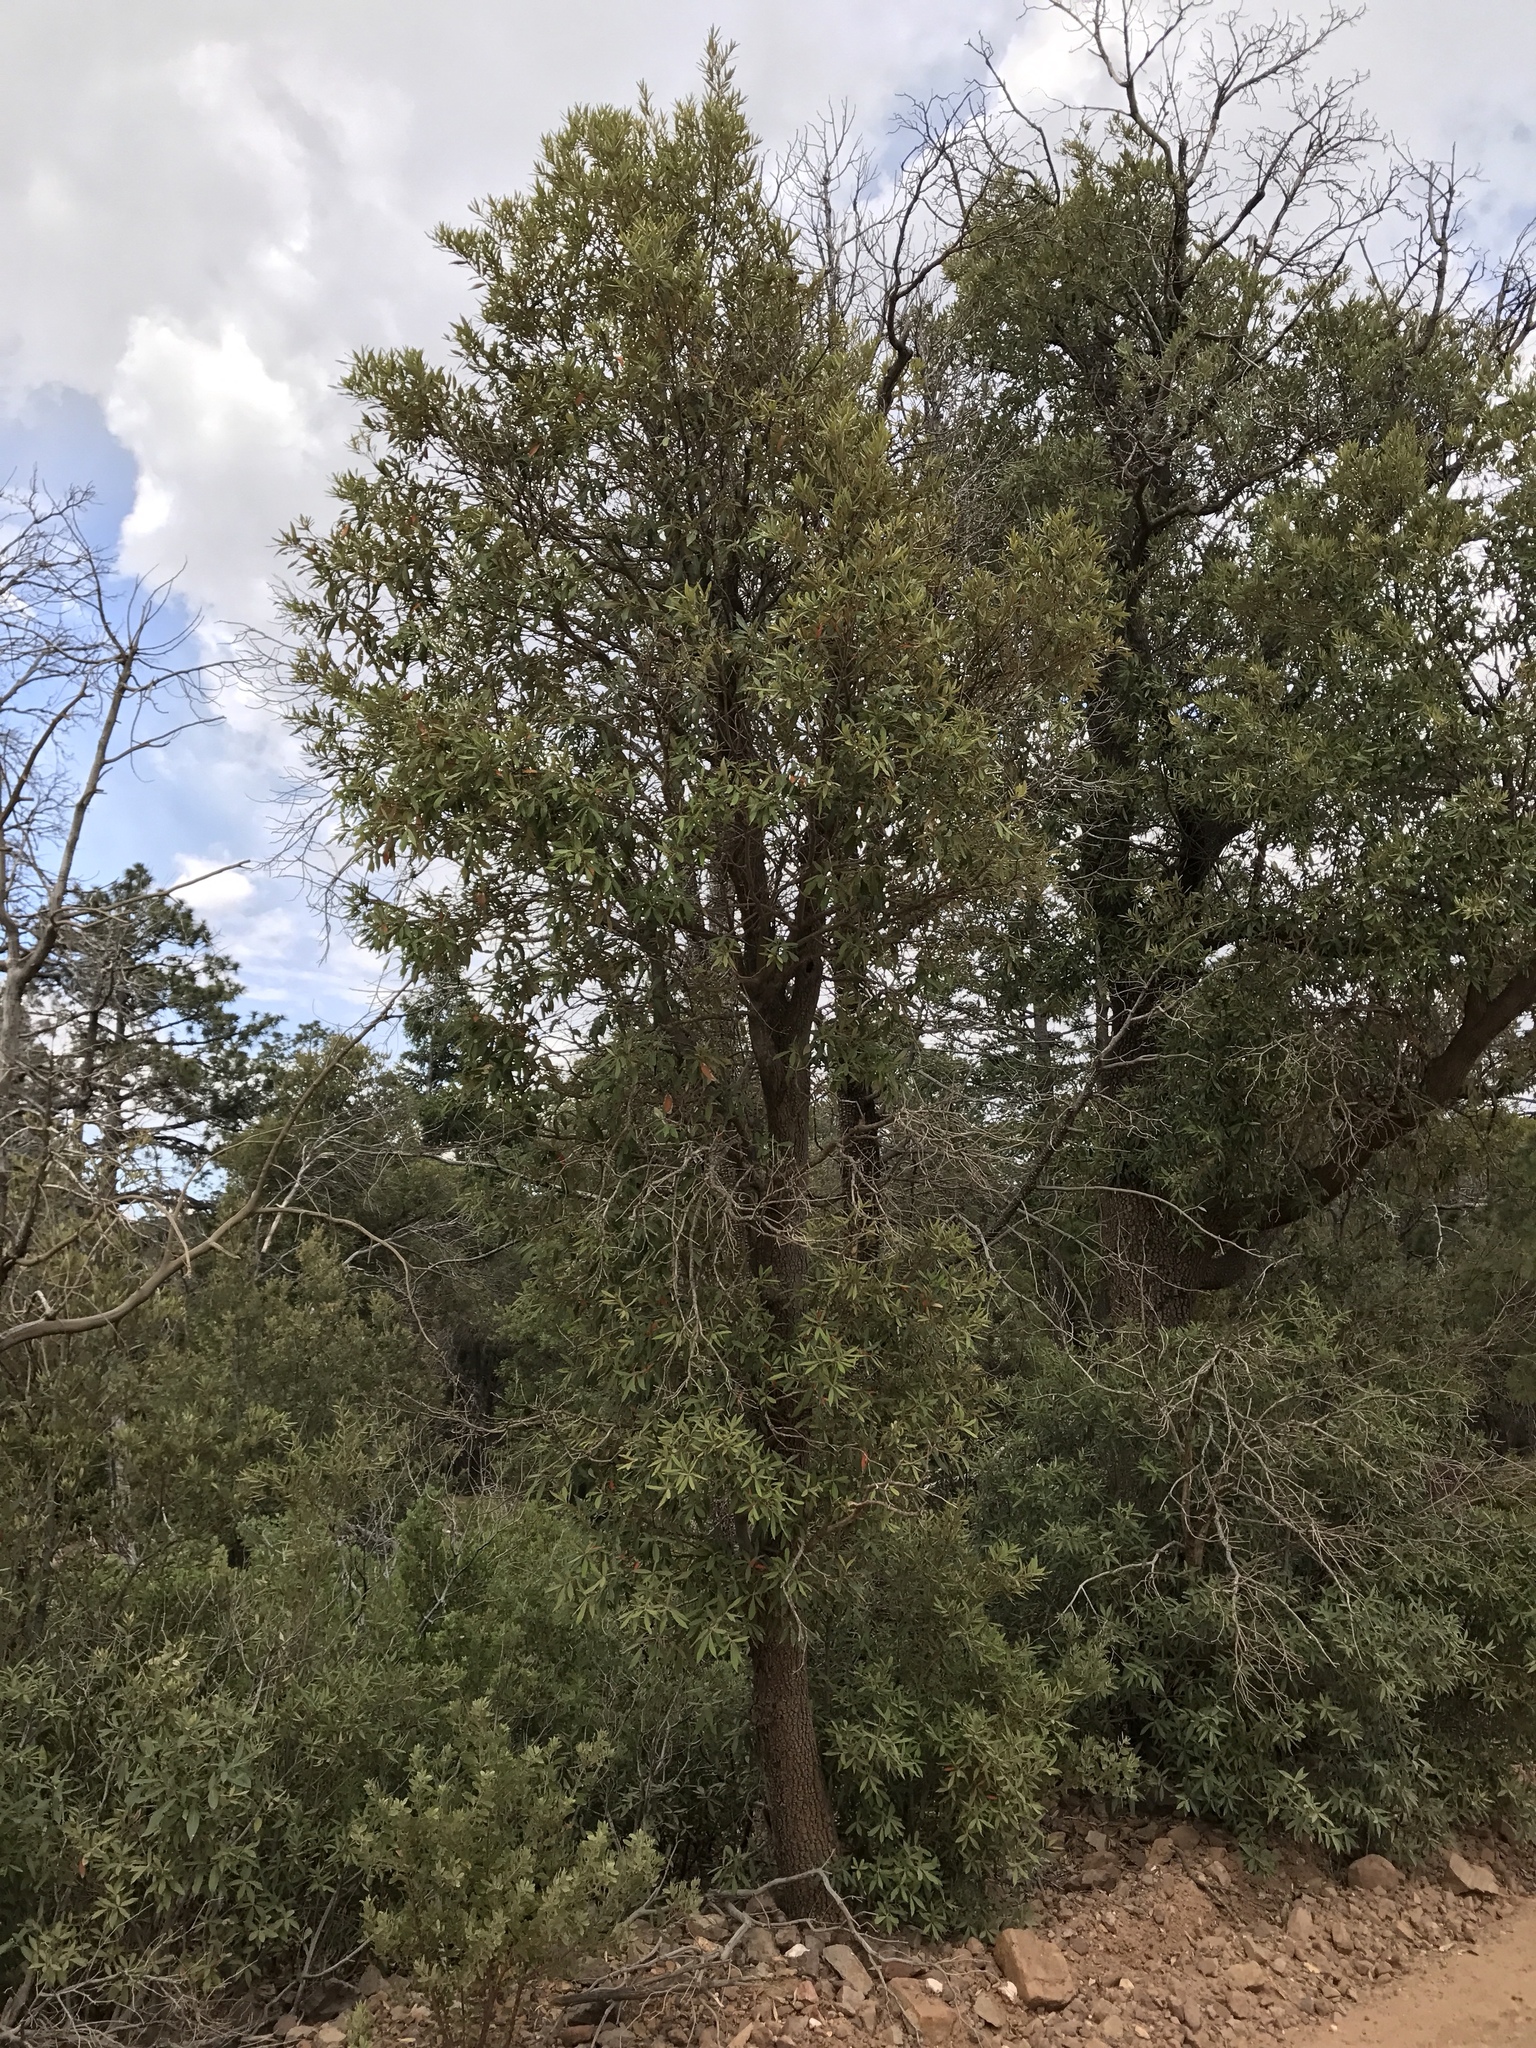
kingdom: Plantae
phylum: Tracheophyta
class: Magnoliopsida
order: Fagales
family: Fagaceae
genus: Quercus
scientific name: Quercus hypoleucoides
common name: Silverleaf oak
